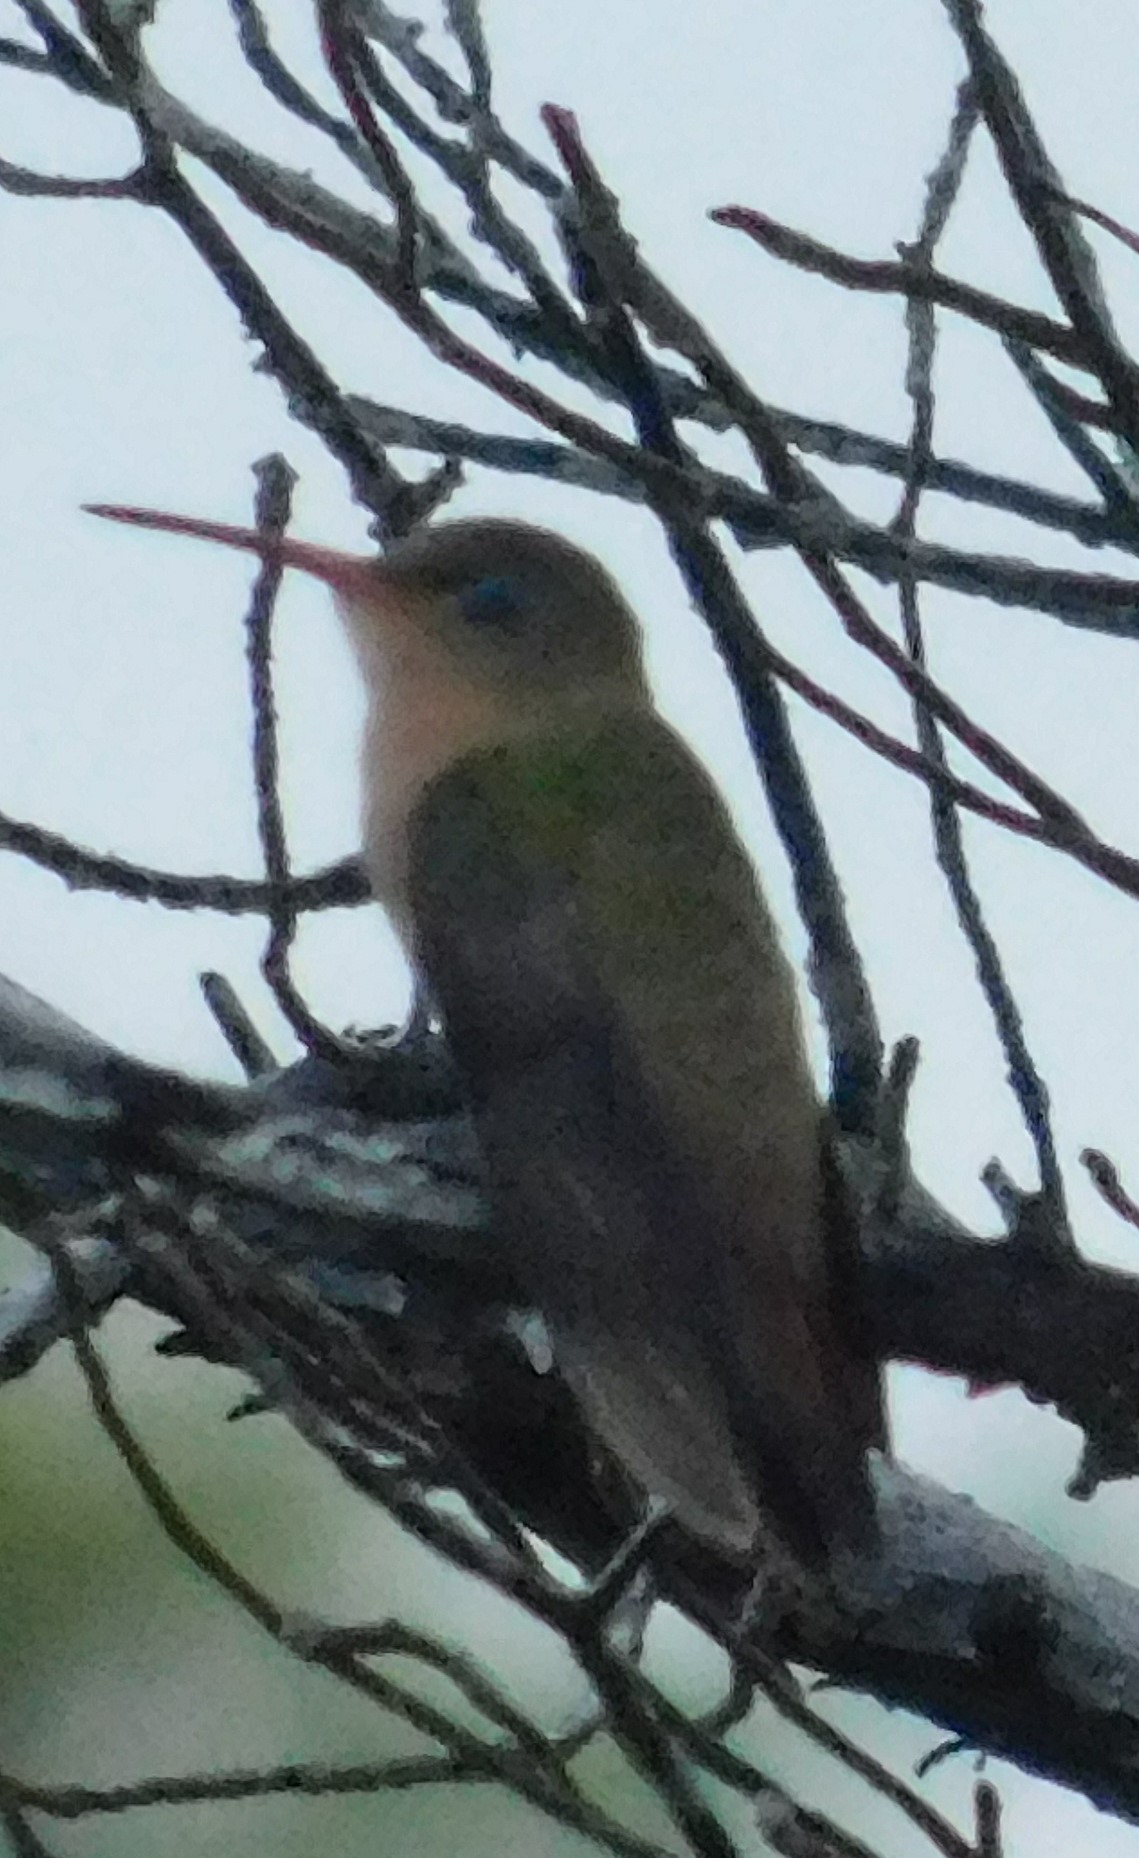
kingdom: Animalia
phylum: Chordata
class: Aves
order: Apodiformes
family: Trochilidae
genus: Amazilia
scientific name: Amazilia rutila
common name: Cinnamon hummingbird
